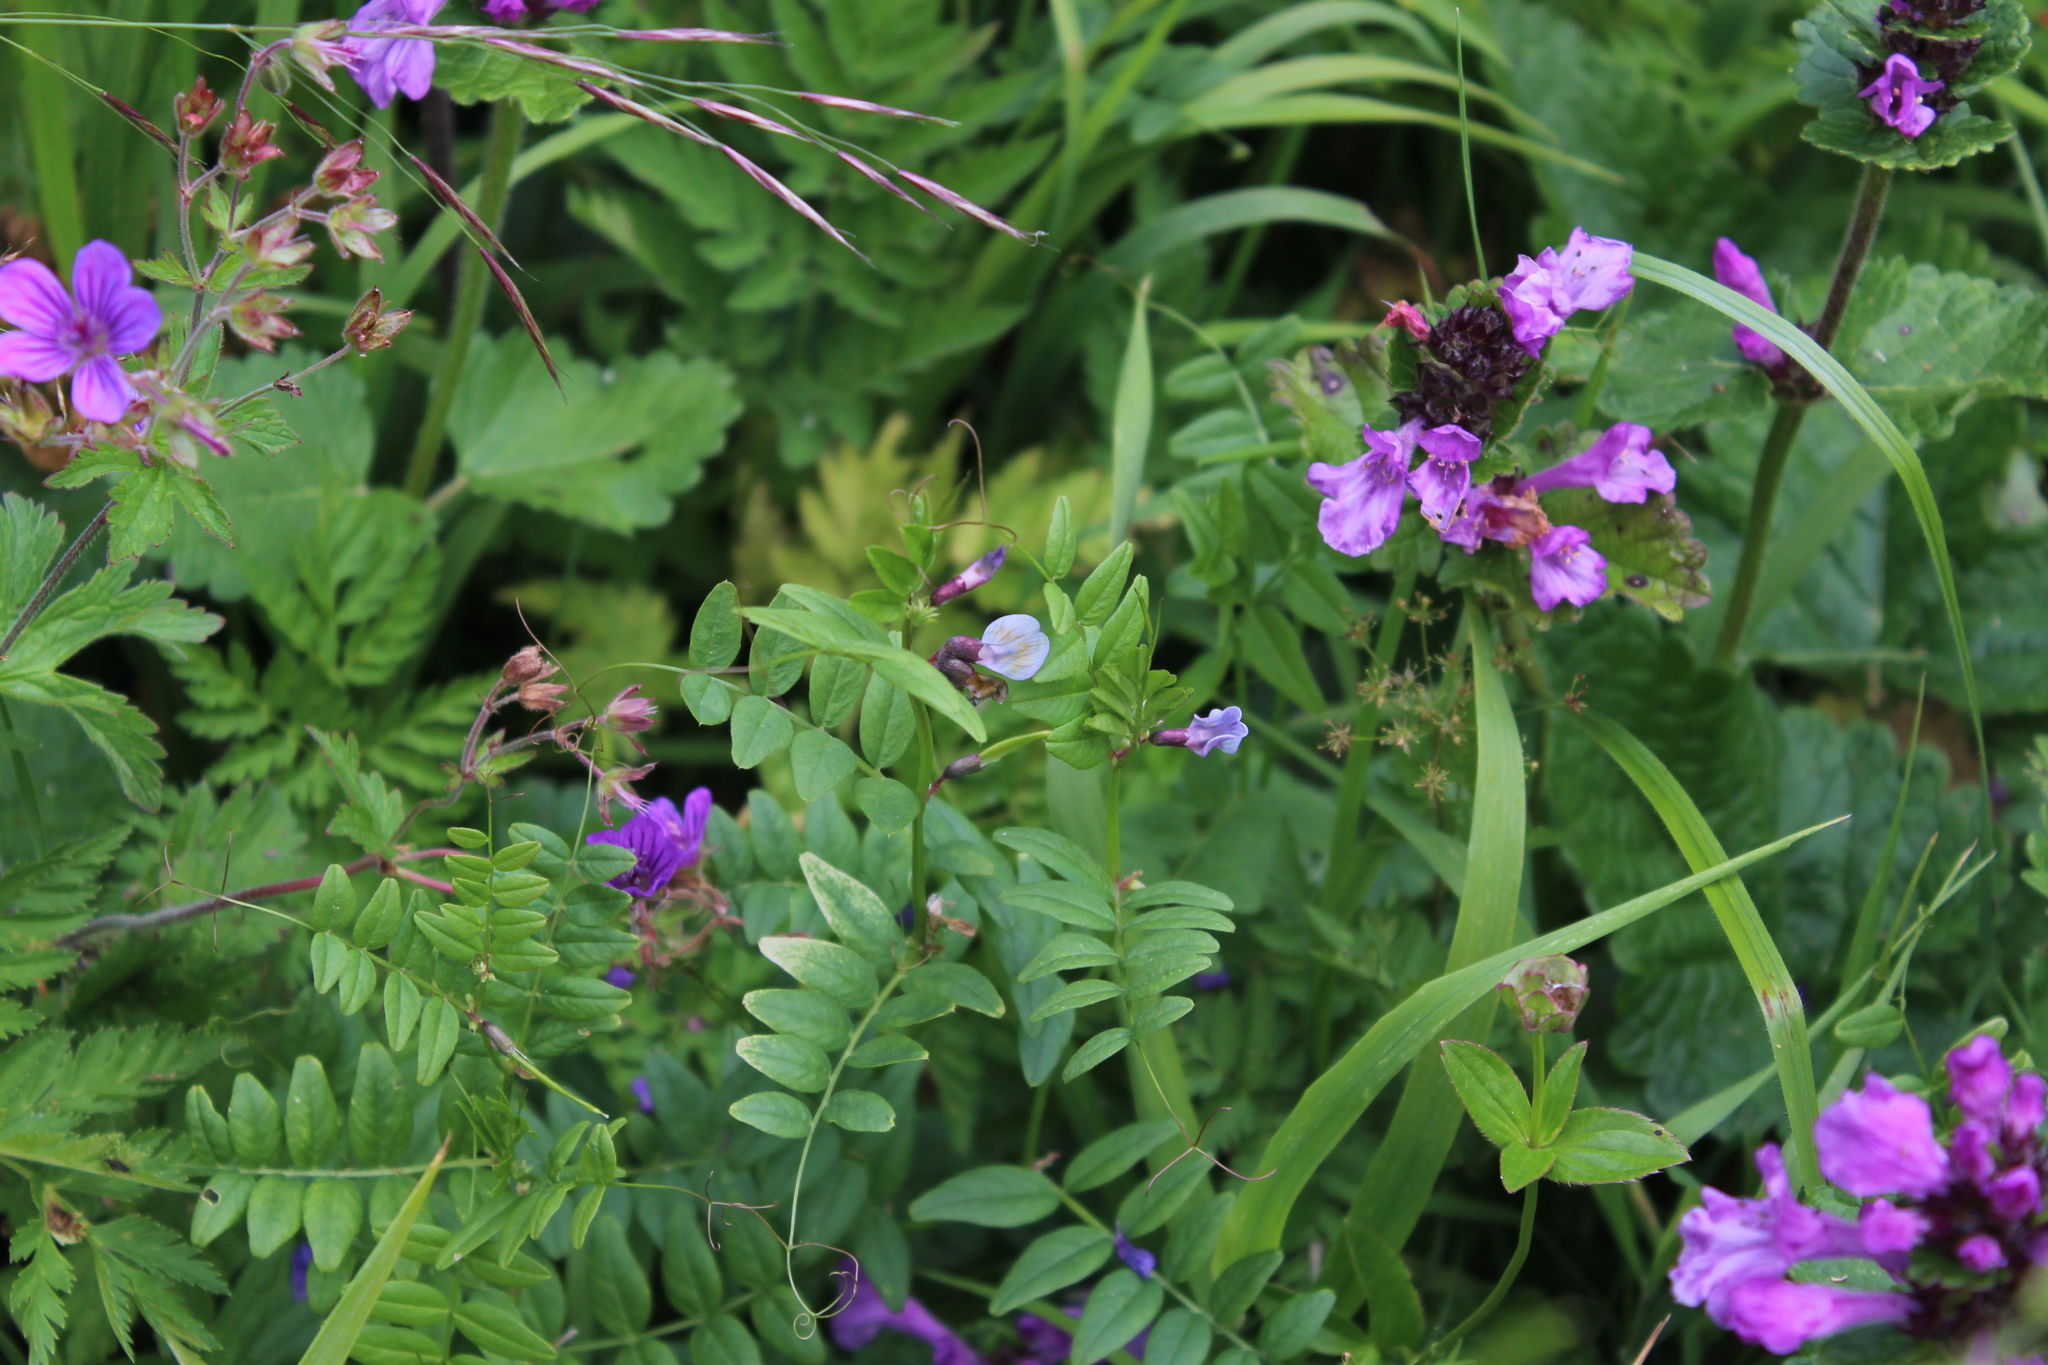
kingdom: Plantae
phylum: Tracheophyta
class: Magnoliopsida
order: Fabales
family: Fabaceae
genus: Vicia
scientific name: Vicia sepium
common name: Bush vetch
